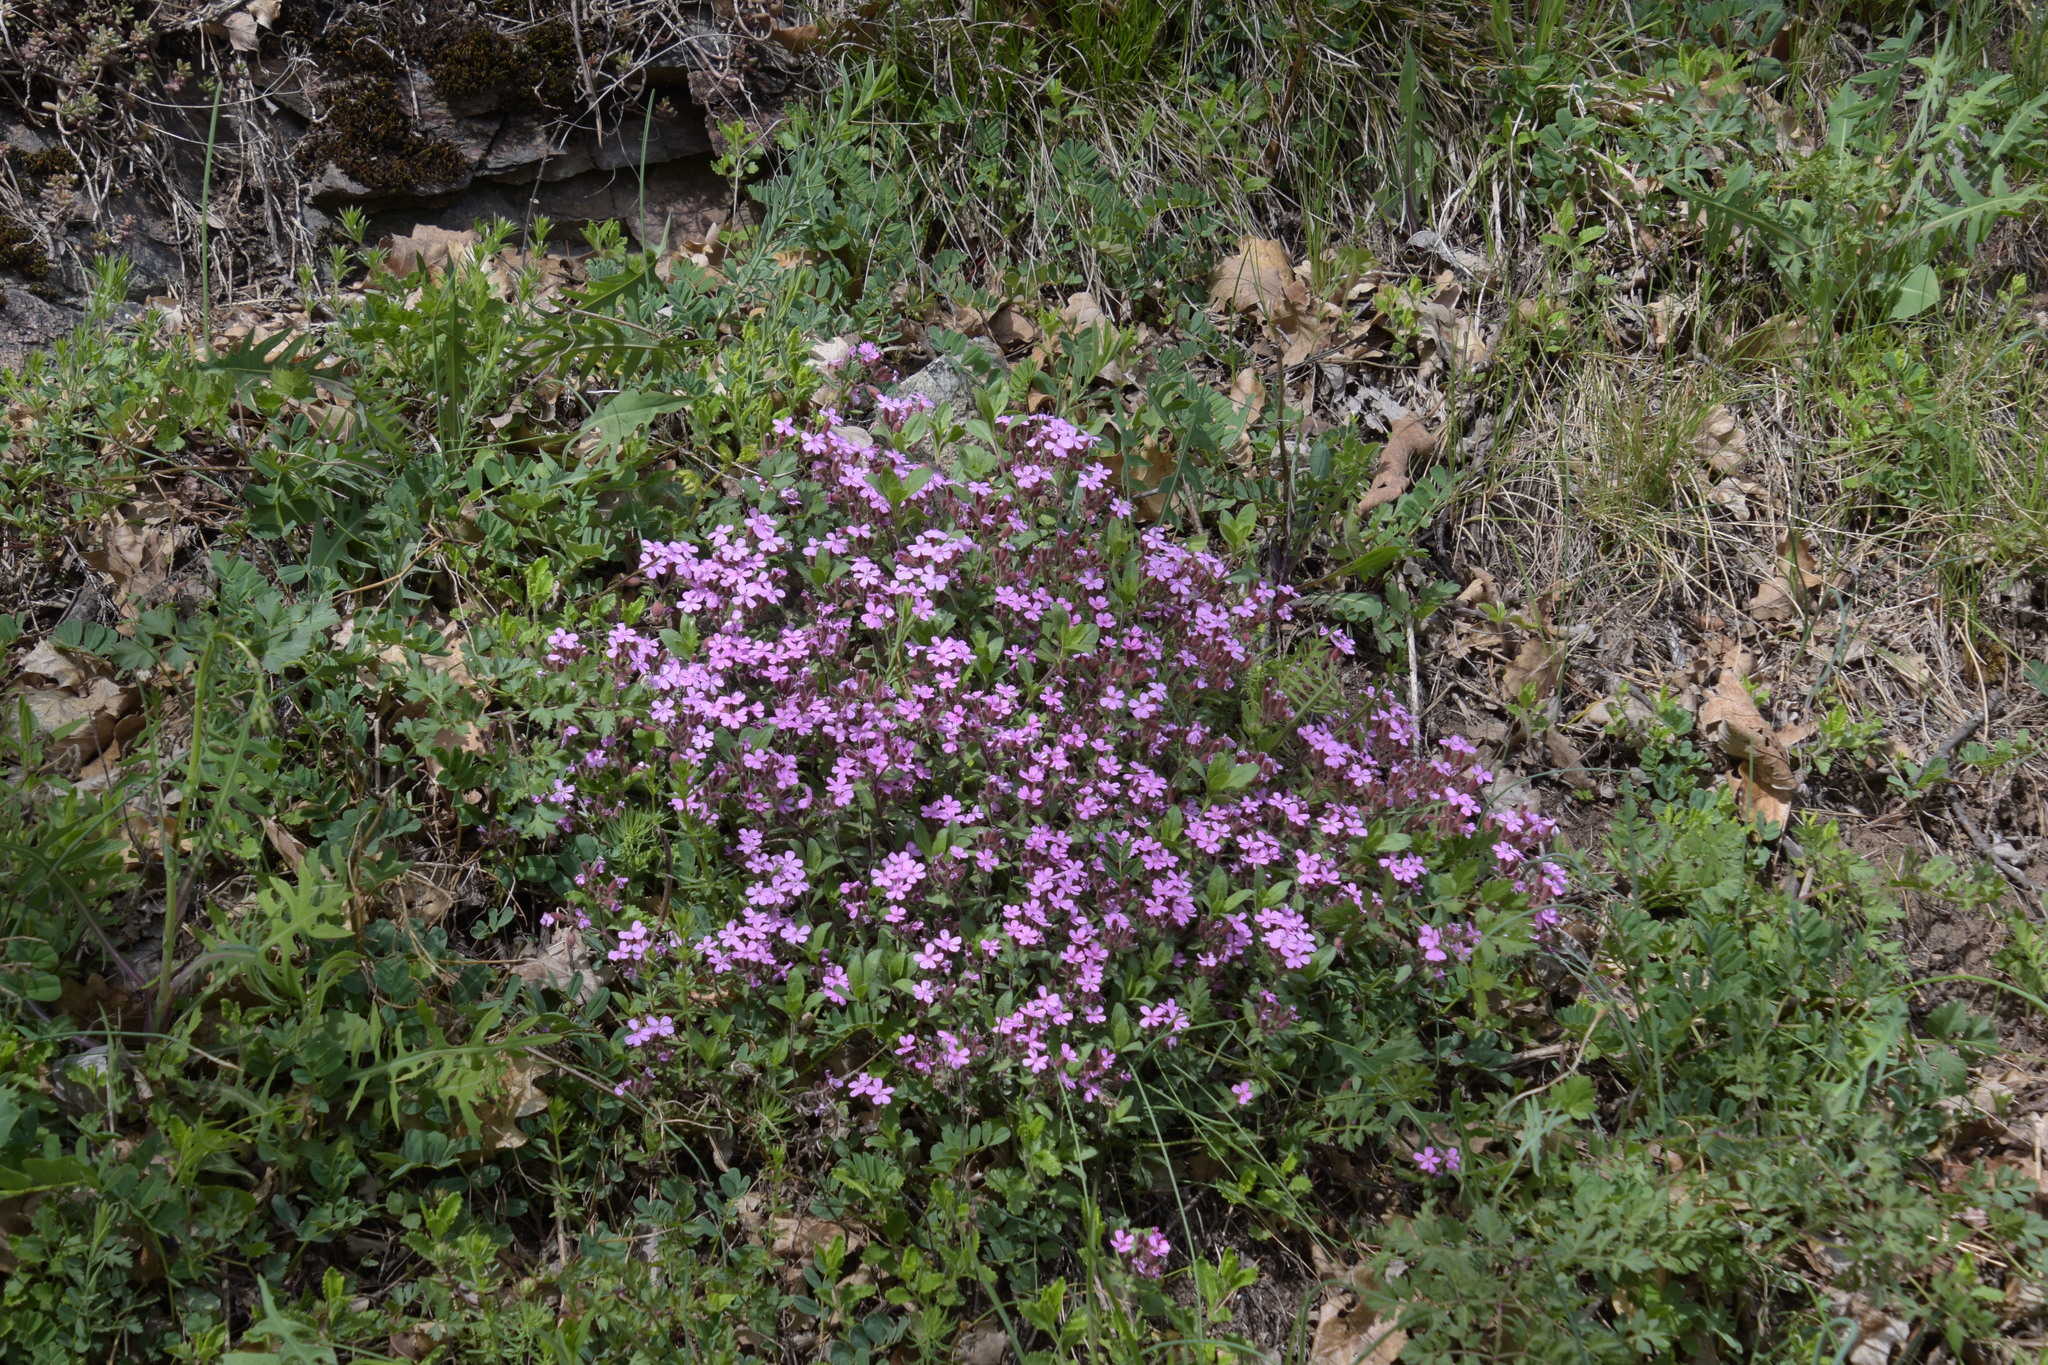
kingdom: Plantae
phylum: Tracheophyta
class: Magnoliopsida
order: Caryophyllales
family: Caryophyllaceae
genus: Saponaria
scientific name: Saponaria ocymoides
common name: Rock soapwort
